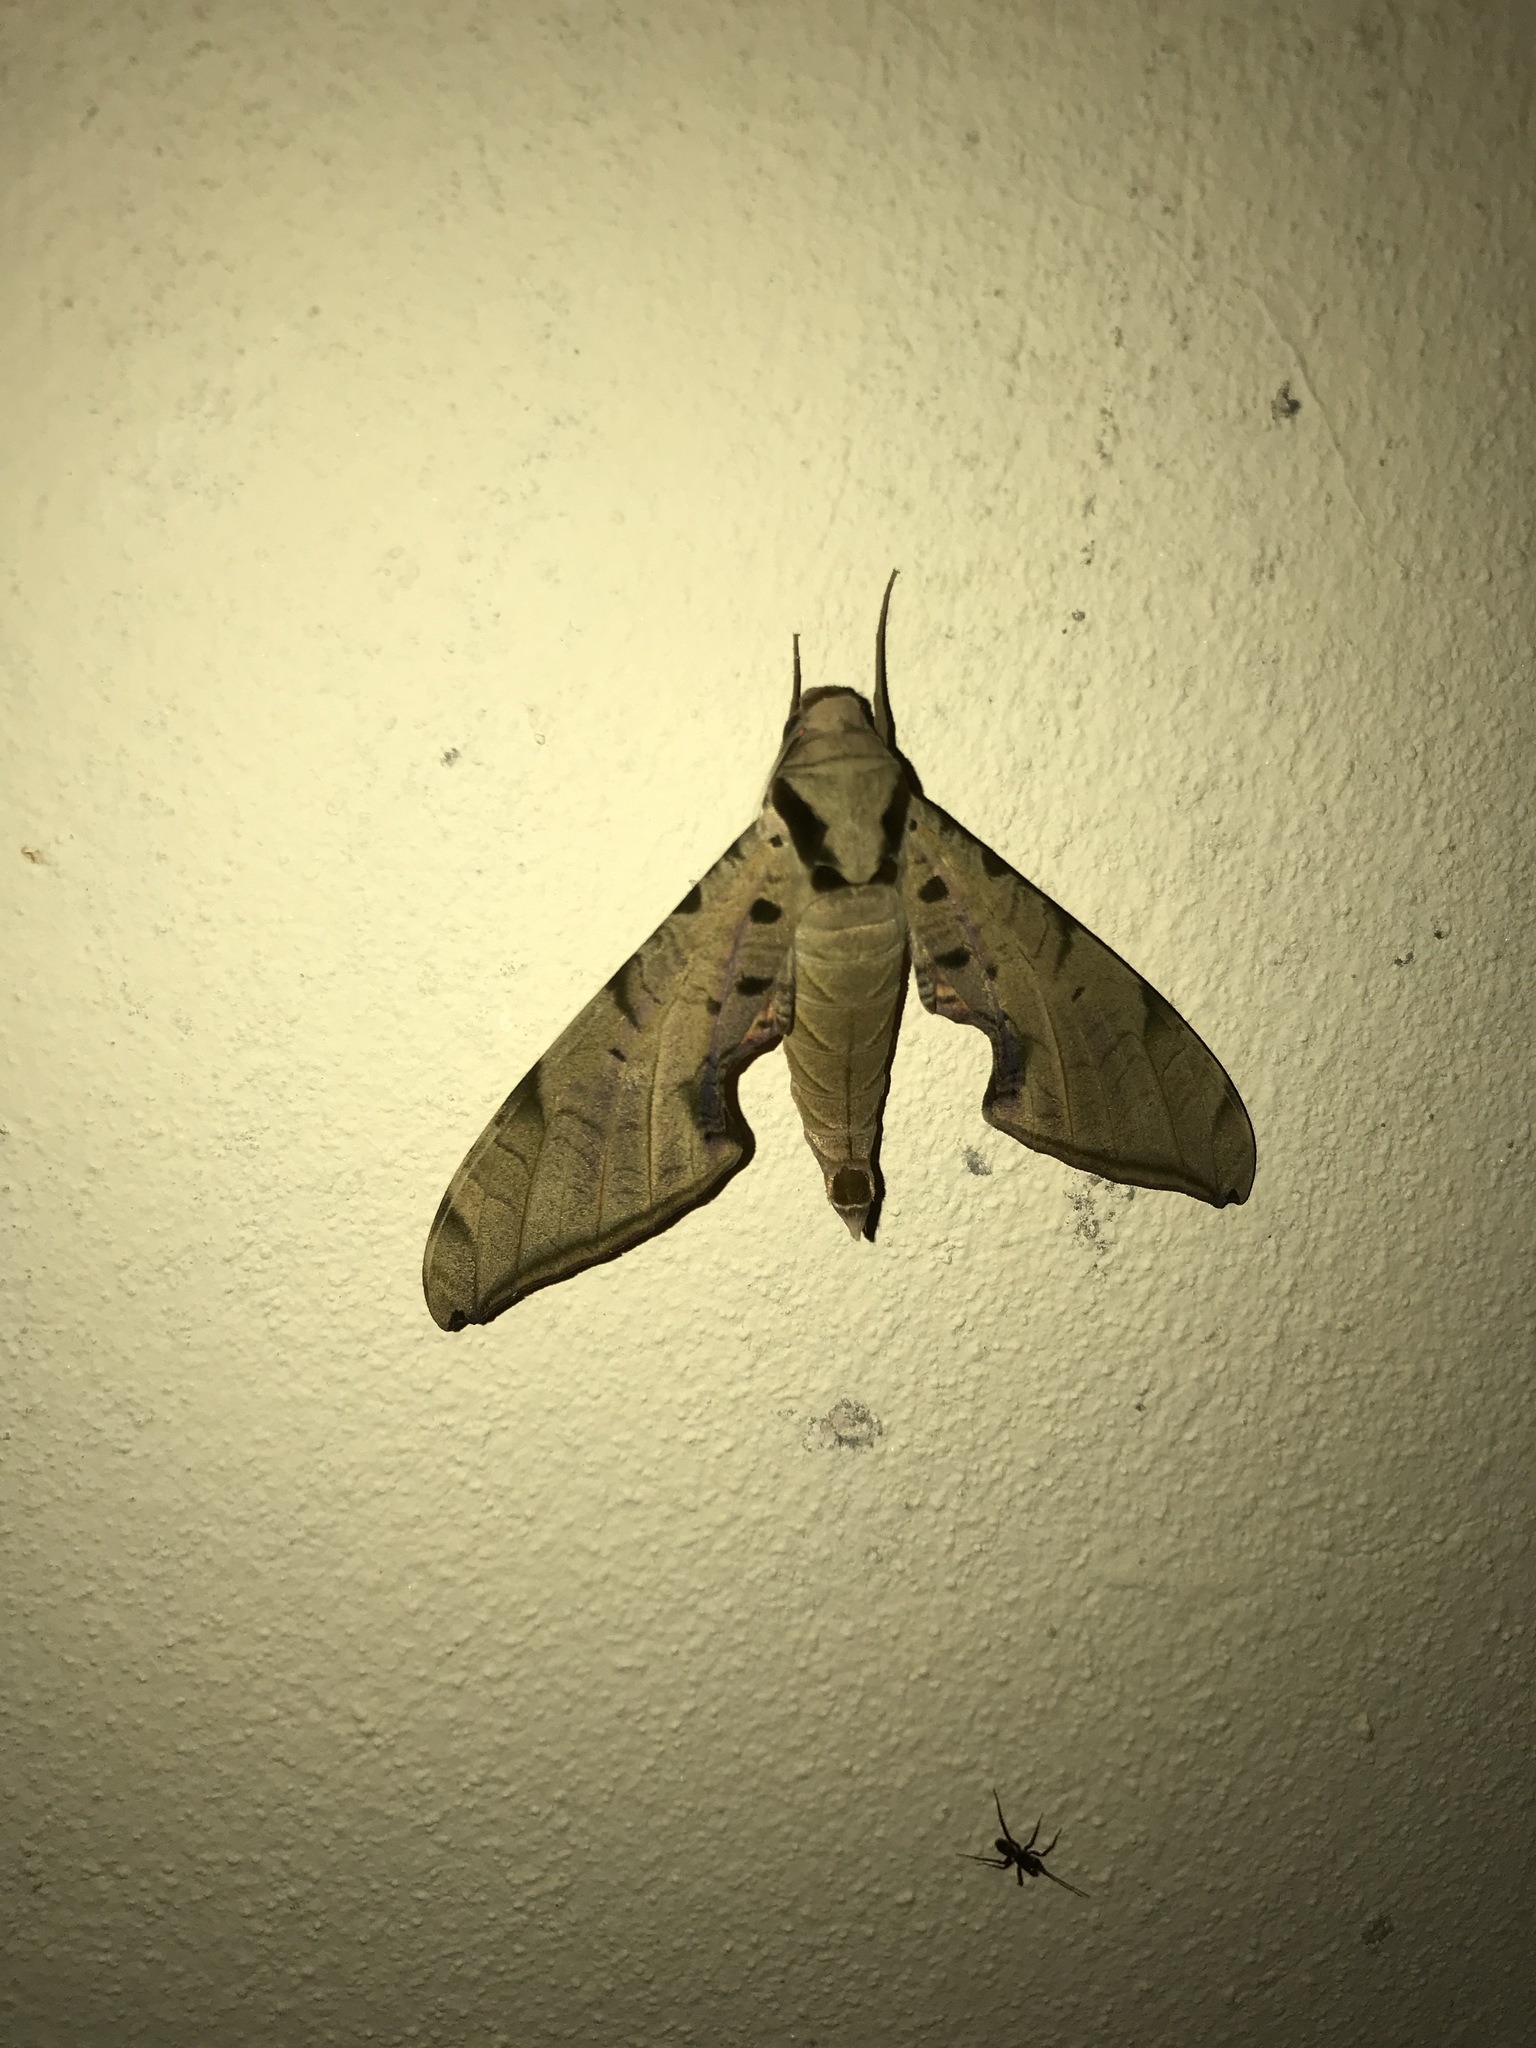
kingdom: Animalia
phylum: Arthropoda
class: Insecta
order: Lepidoptera
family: Sphingidae
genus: Protambulyx
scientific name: Protambulyx strigilis
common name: Streaked sphinx
